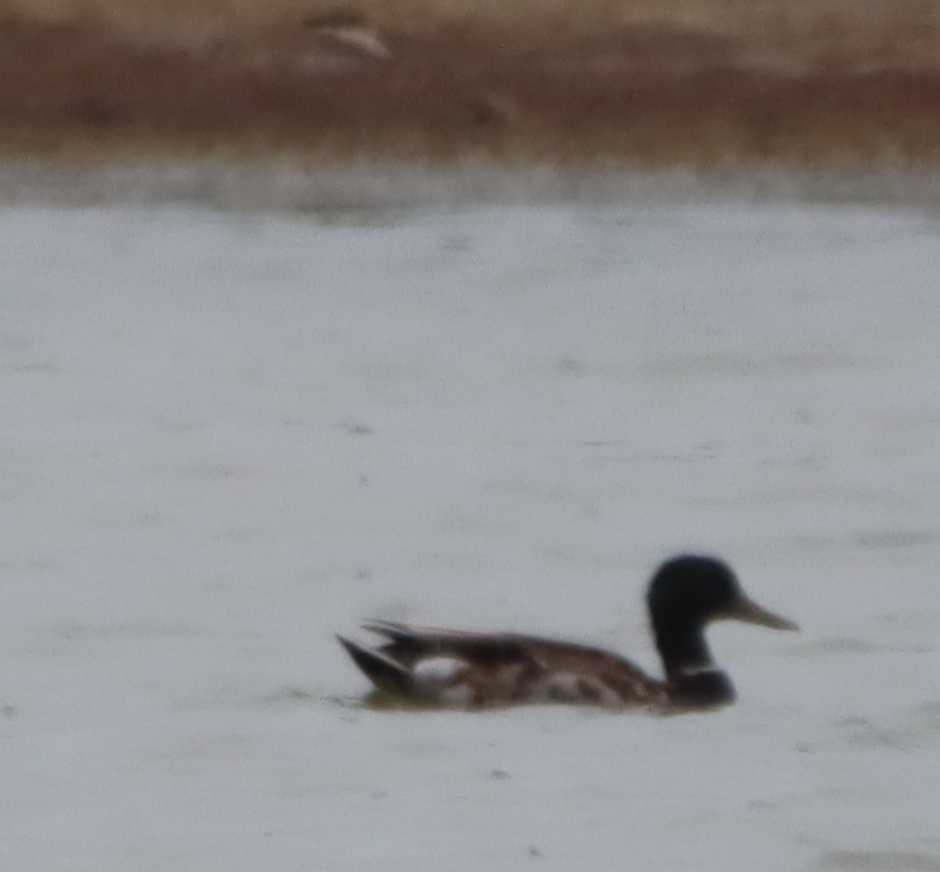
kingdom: Animalia
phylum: Chordata
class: Aves
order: Anseriformes
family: Anatidae
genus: Anas
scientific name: Anas platyrhynchos
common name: Mallard
